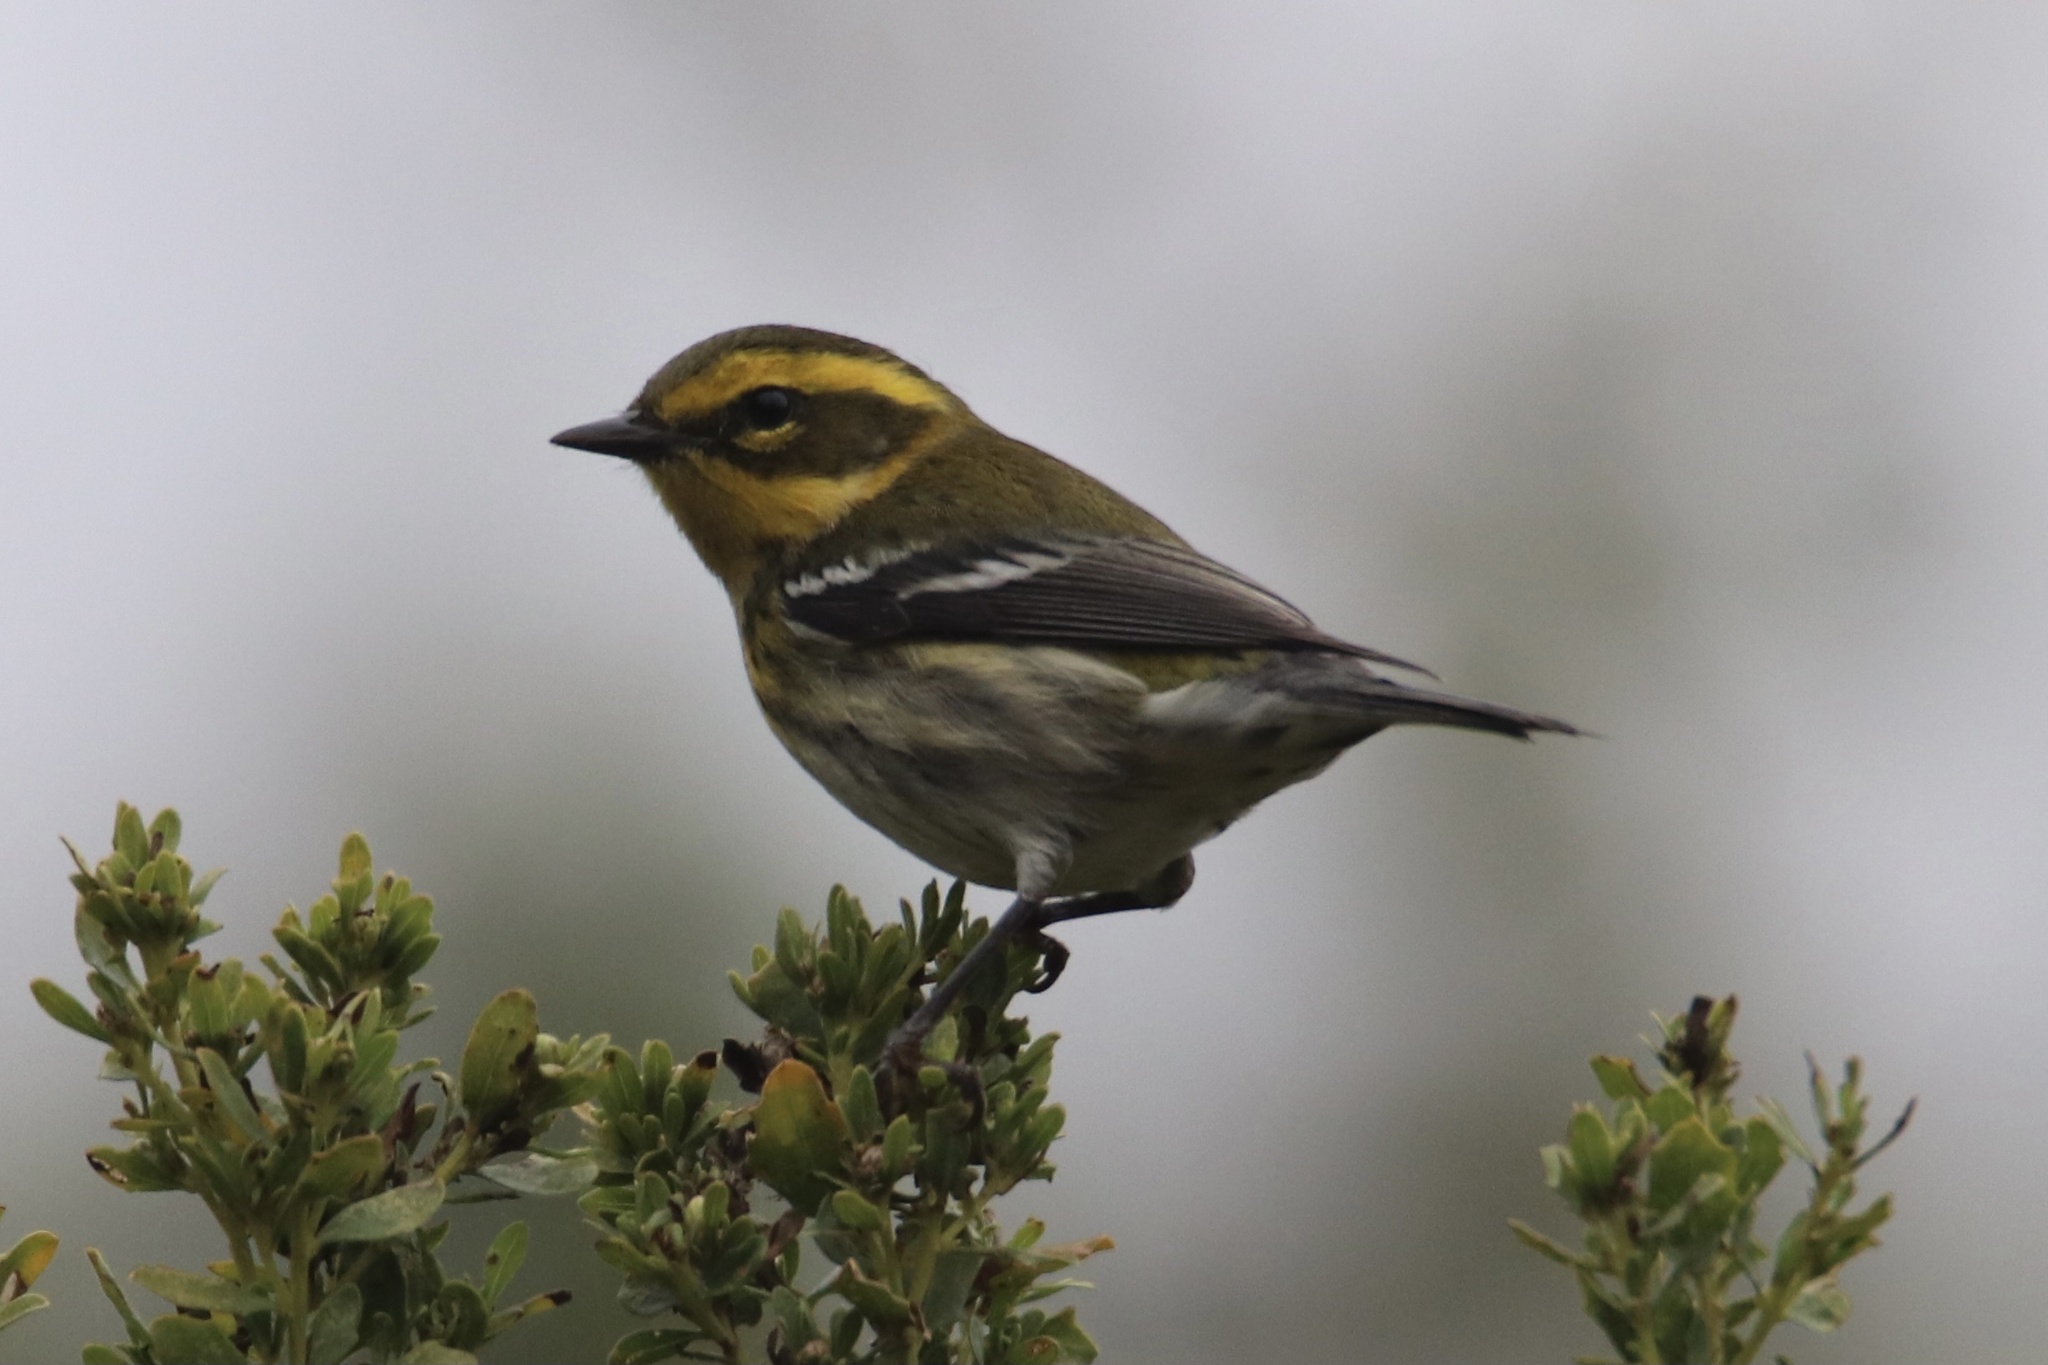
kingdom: Animalia
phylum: Chordata
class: Aves
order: Passeriformes
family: Parulidae
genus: Setophaga
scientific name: Setophaga townsendi
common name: Townsend's warbler
